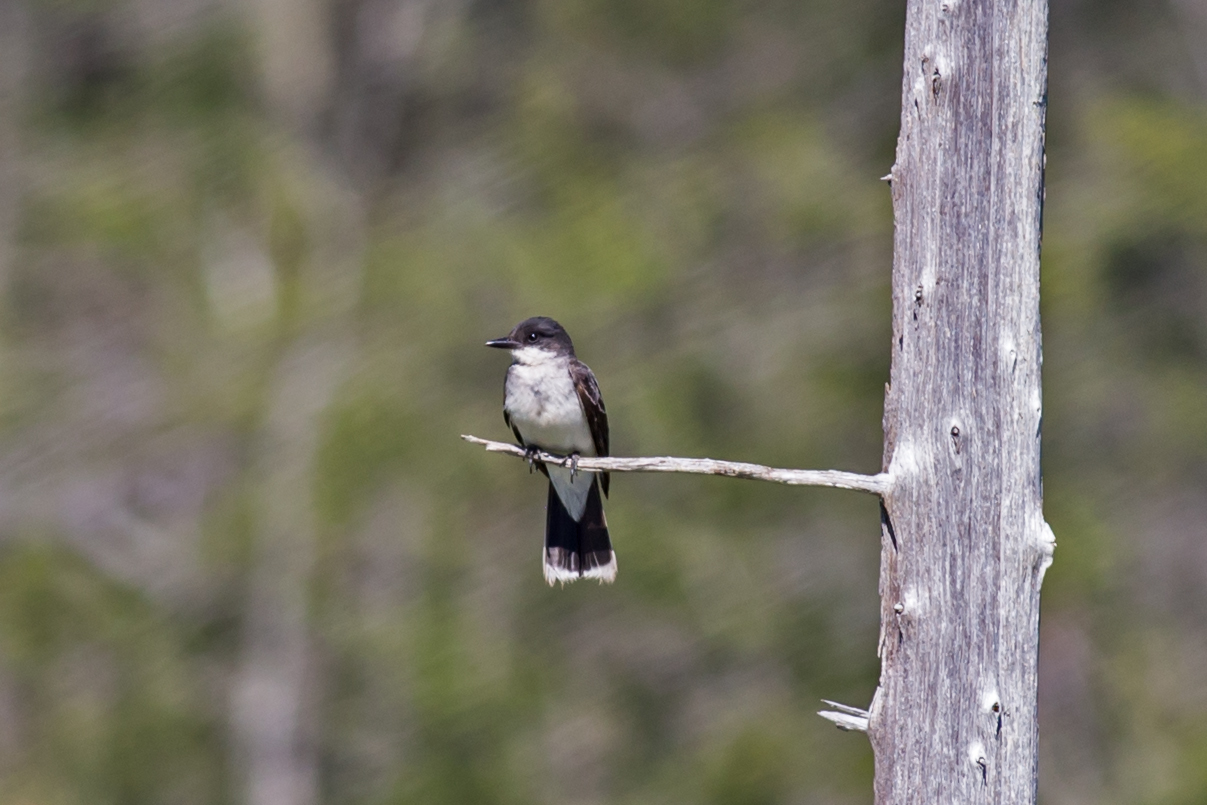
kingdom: Animalia
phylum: Chordata
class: Aves
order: Passeriformes
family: Tyrannidae
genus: Tyrannus
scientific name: Tyrannus tyrannus
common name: Eastern kingbird
